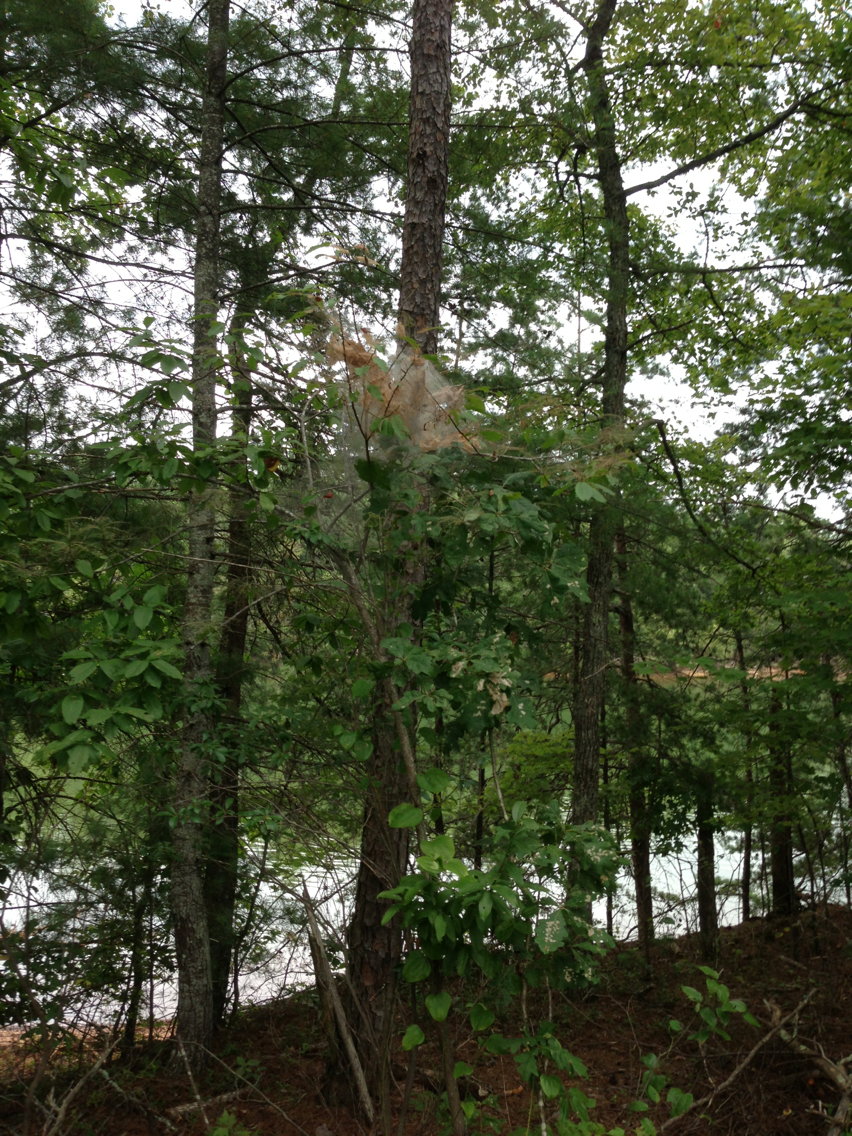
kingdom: Animalia
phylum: Arthropoda
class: Insecta
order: Lepidoptera
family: Erebidae
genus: Hyphantria
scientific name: Hyphantria cunea
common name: American white moth
